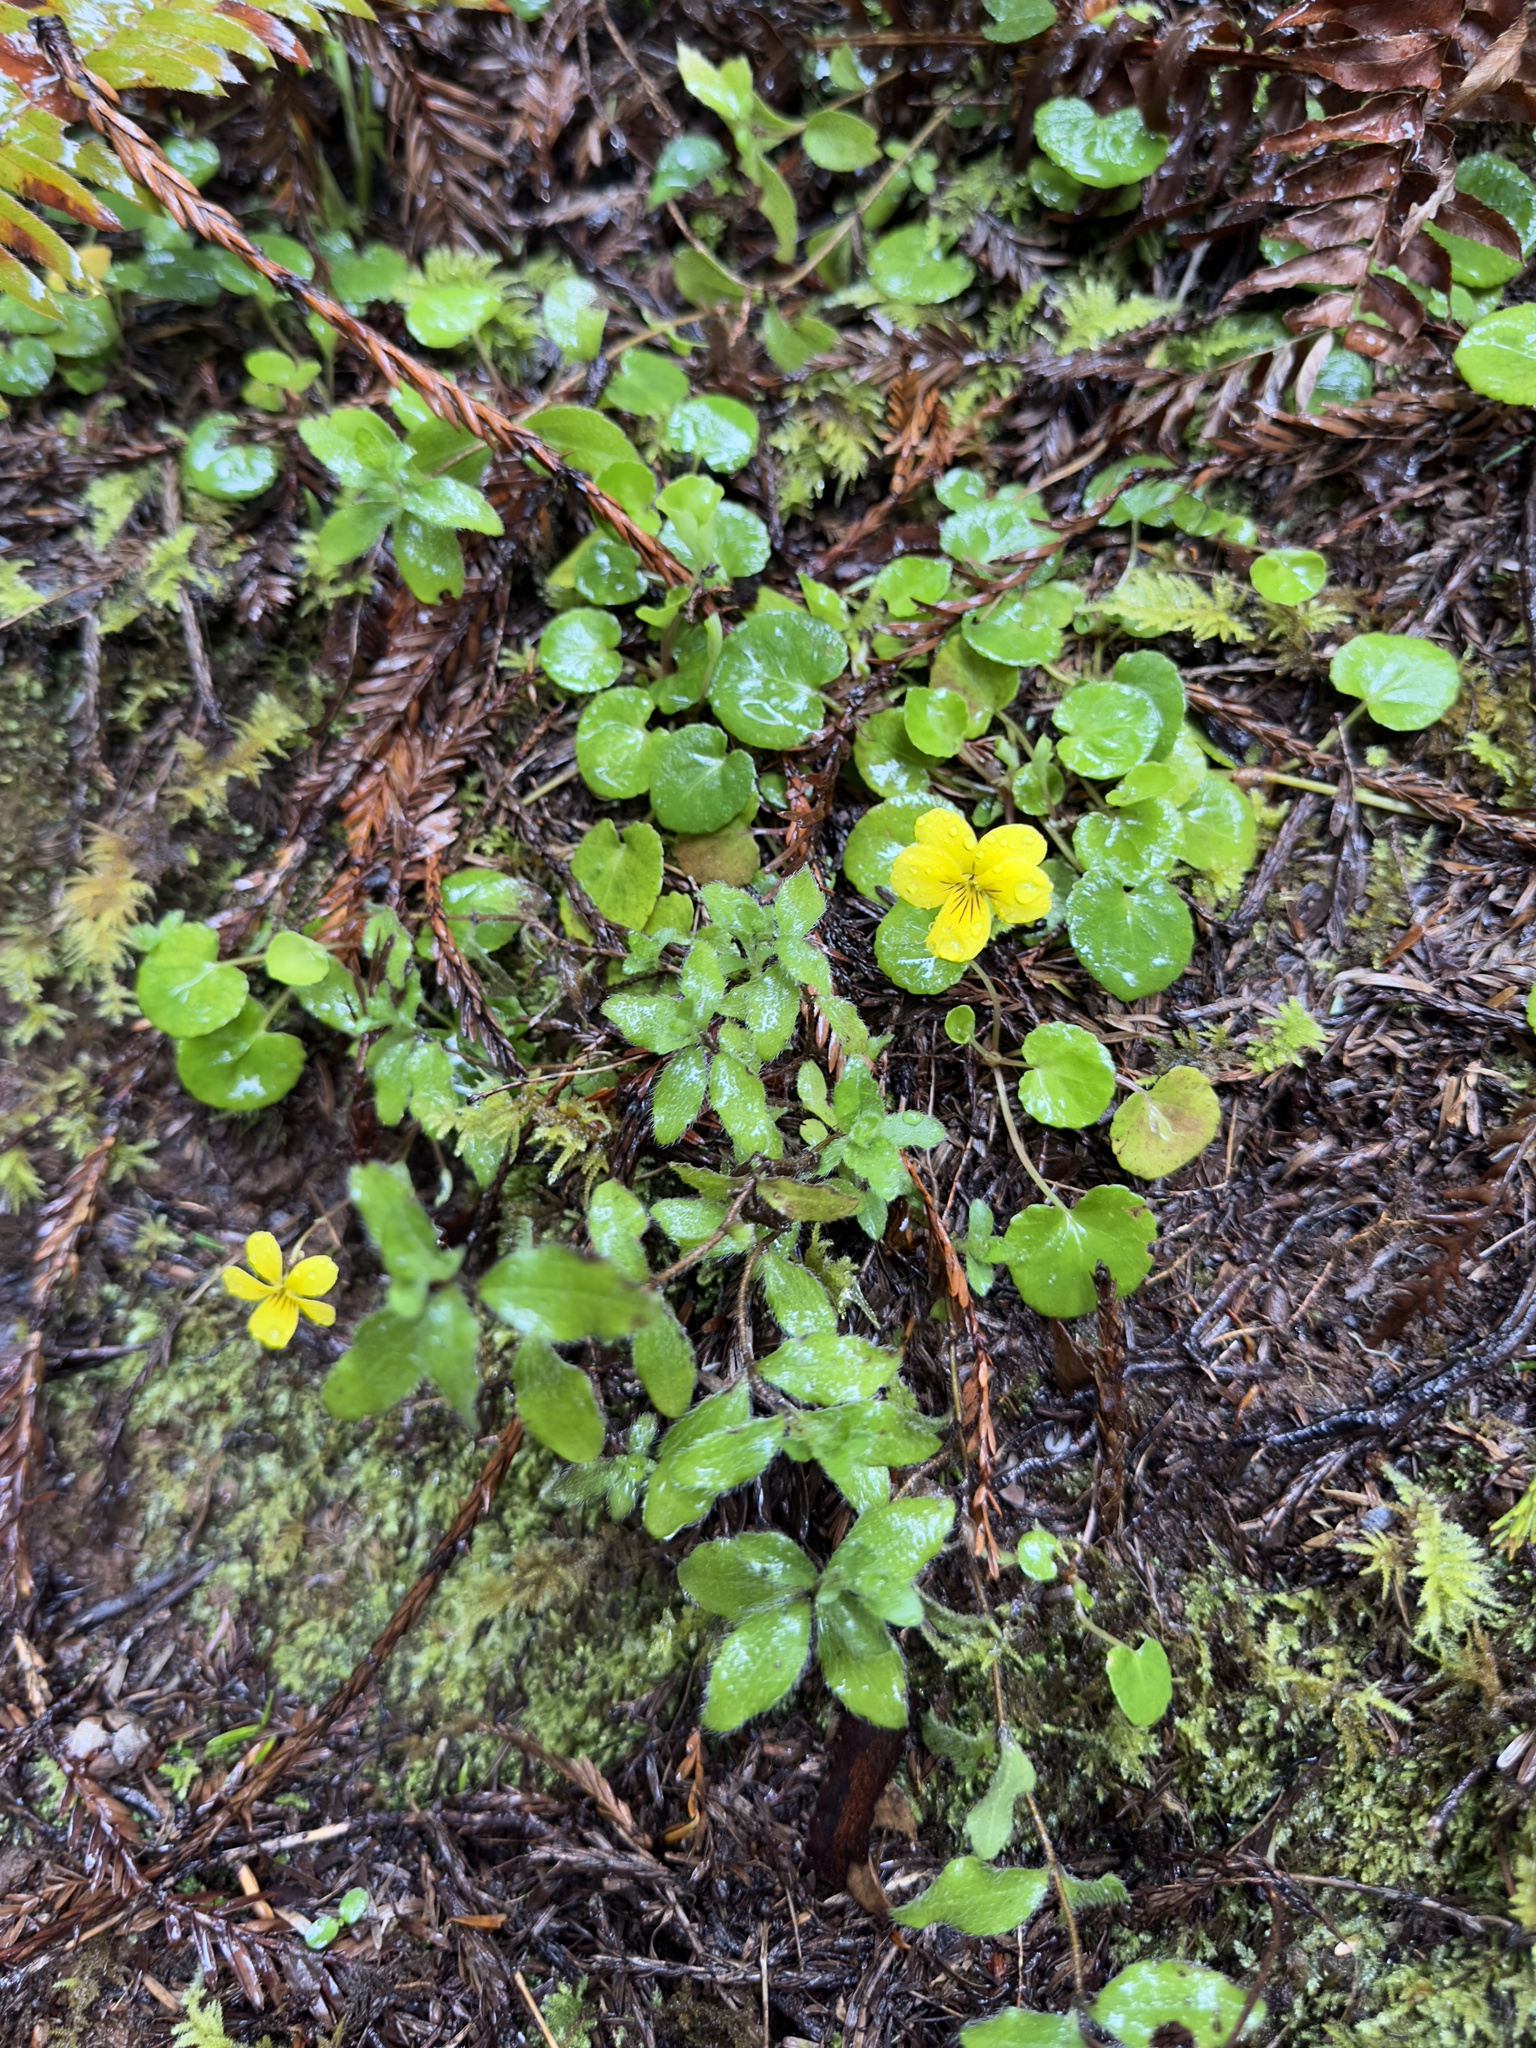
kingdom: Plantae
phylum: Tracheophyta
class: Magnoliopsida
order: Malpighiales
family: Violaceae
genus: Viola
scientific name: Viola sempervirens
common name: Evergreen violet
